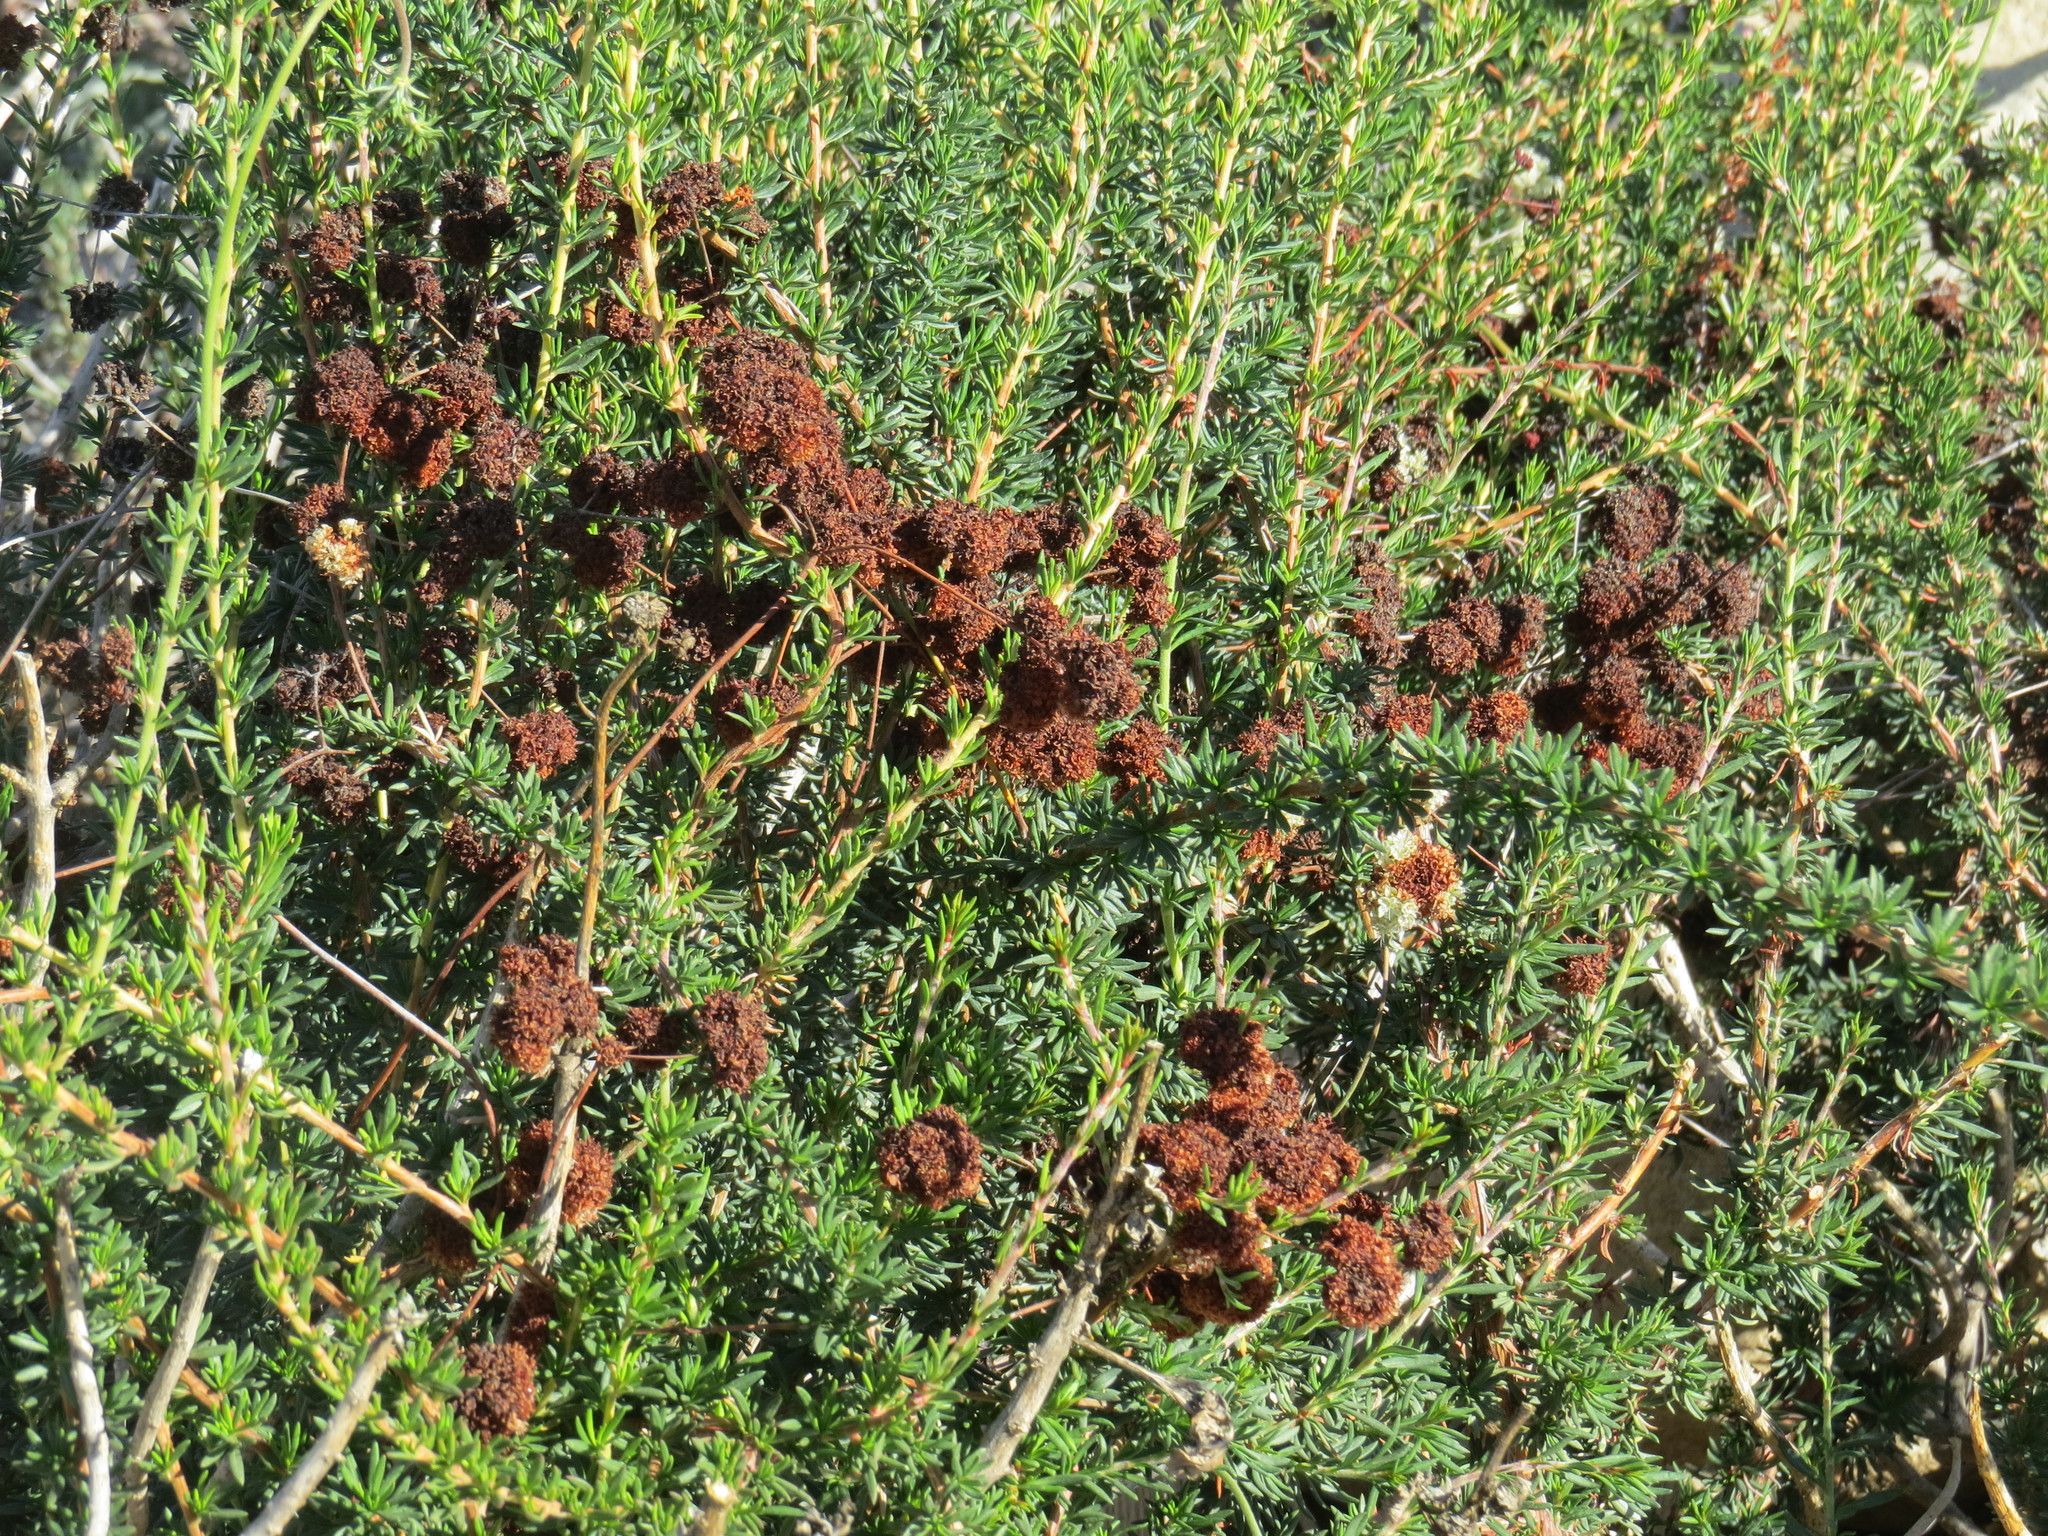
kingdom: Plantae
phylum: Tracheophyta
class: Magnoliopsida
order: Caryophyllales
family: Polygonaceae
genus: Eriogonum
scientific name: Eriogonum fasciculatum
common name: California wild buckwheat
